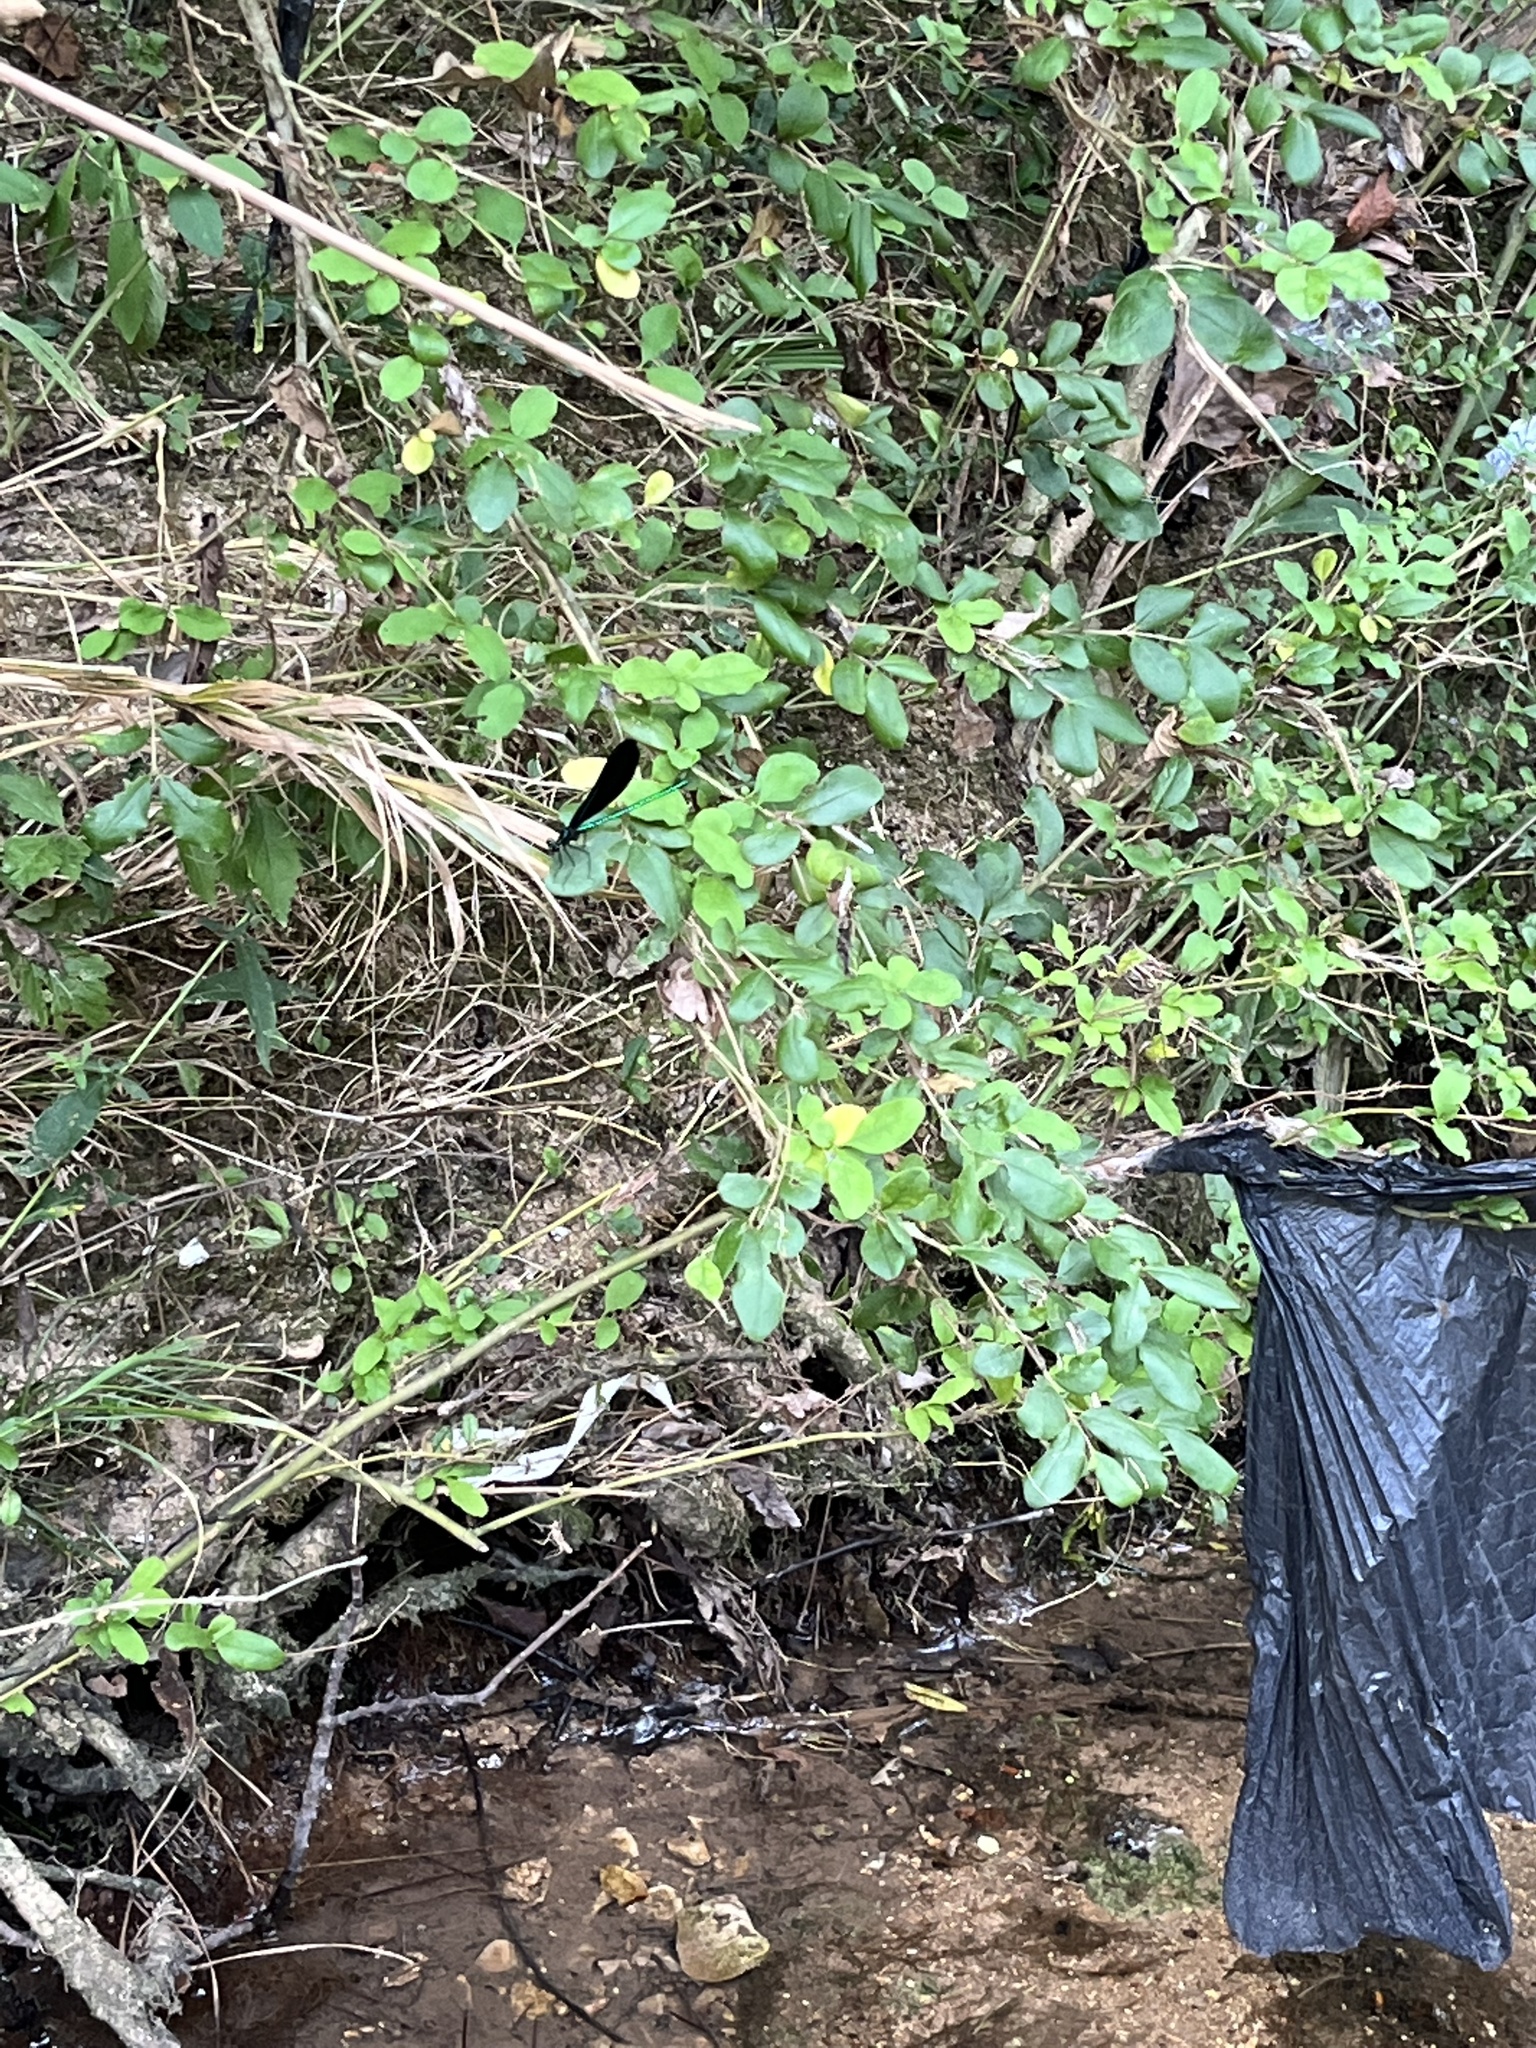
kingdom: Animalia
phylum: Arthropoda
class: Insecta
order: Odonata
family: Calopterygidae
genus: Calopteryx
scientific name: Calopteryx maculata
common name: Ebony jewelwing
